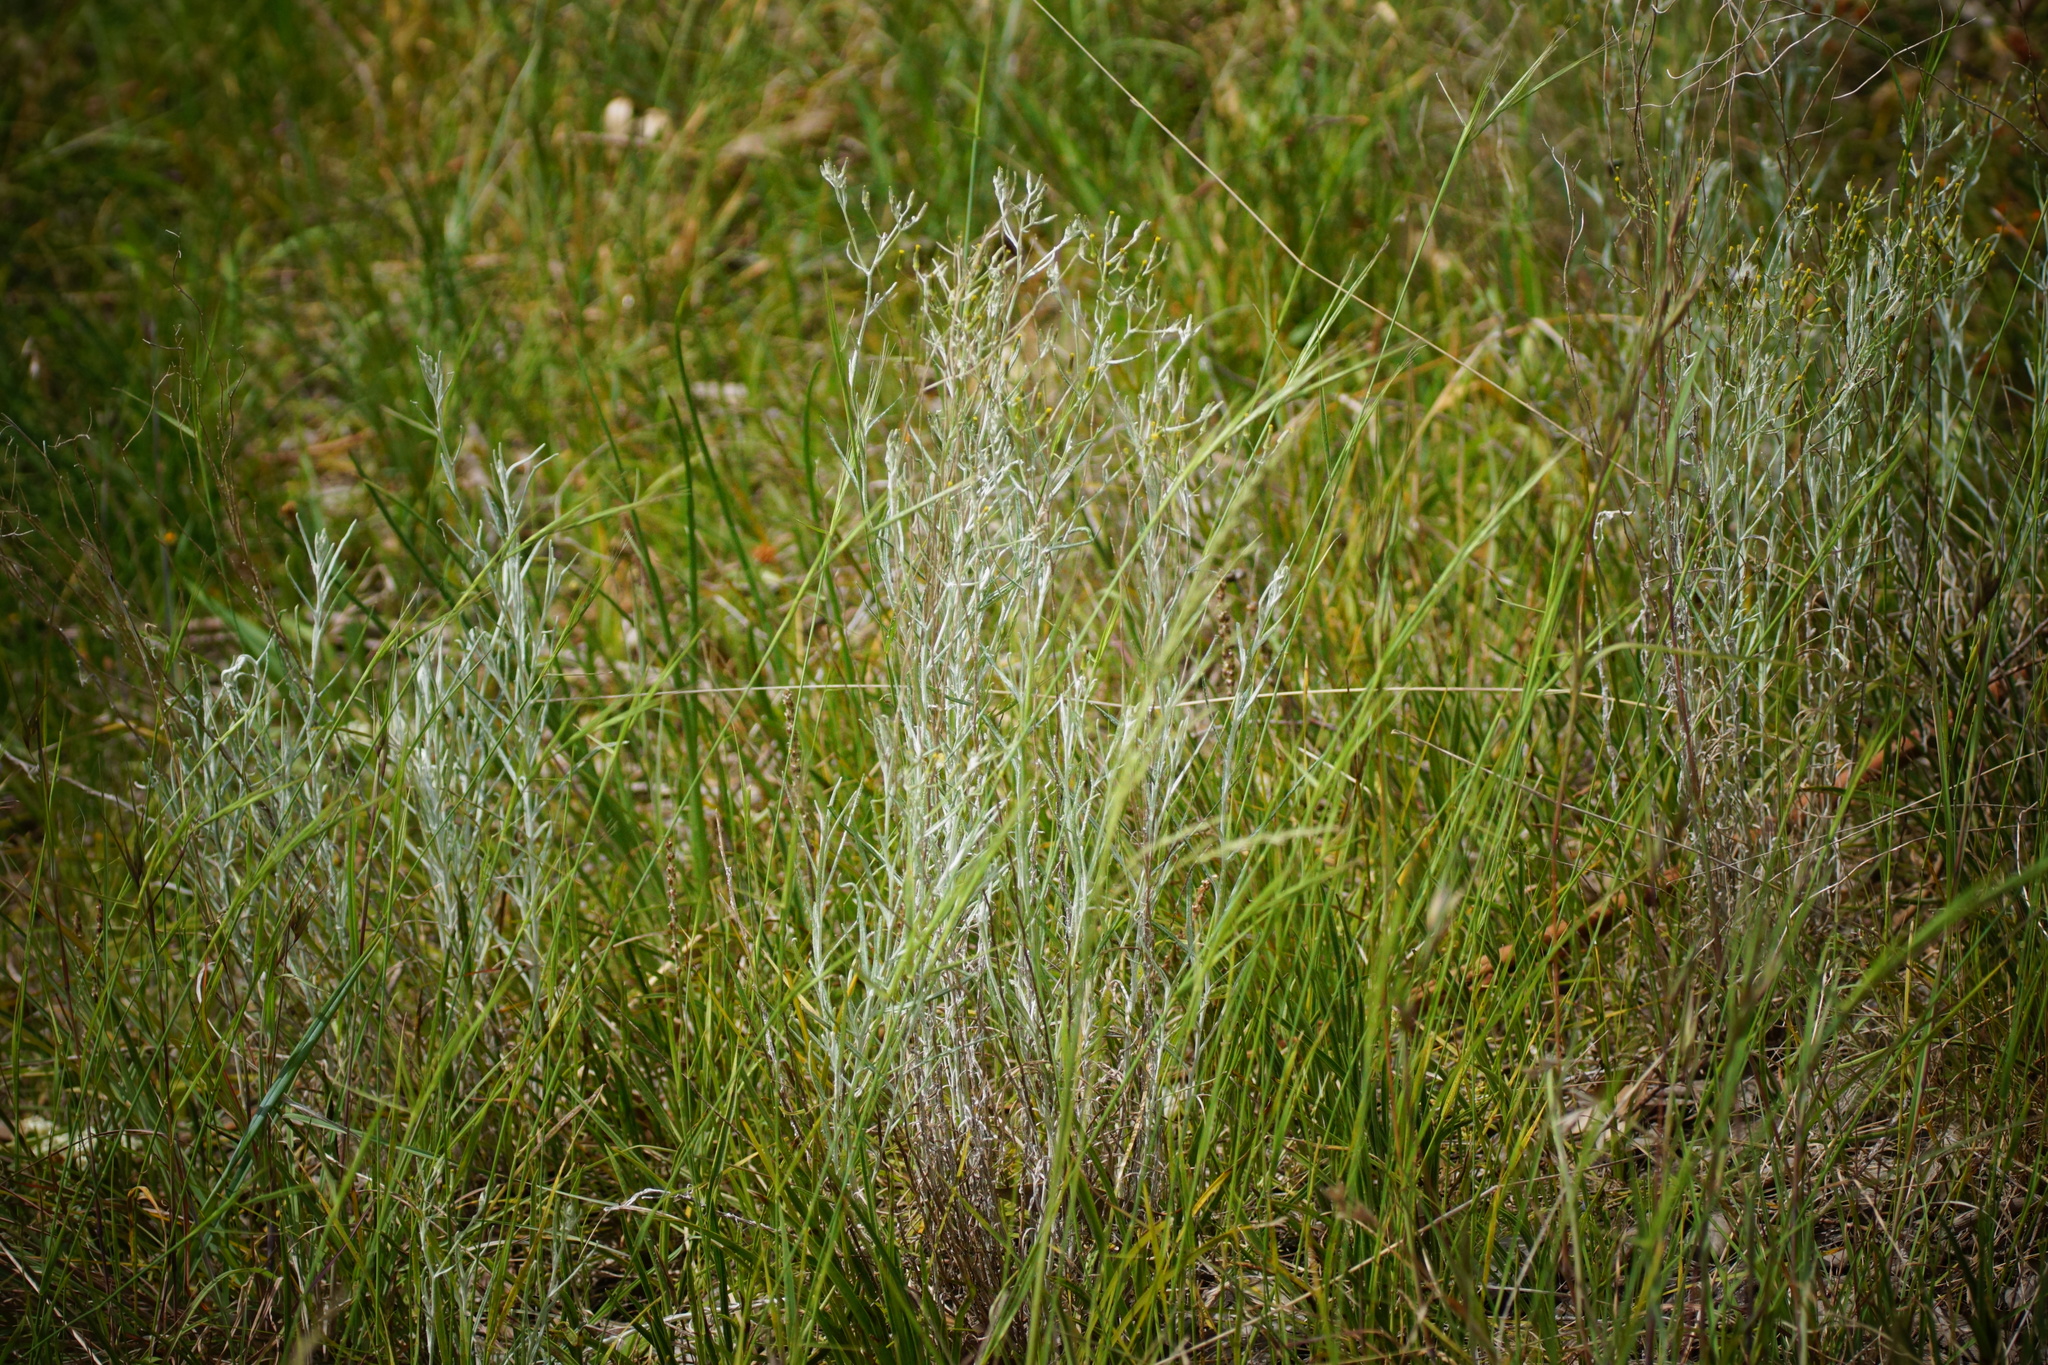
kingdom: Plantae
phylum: Tracheophyta
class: Magnoliopsida
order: Asterales
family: Asteraceae
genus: Senecio
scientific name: Senecio quadridentatus
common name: Cotton fireweed
